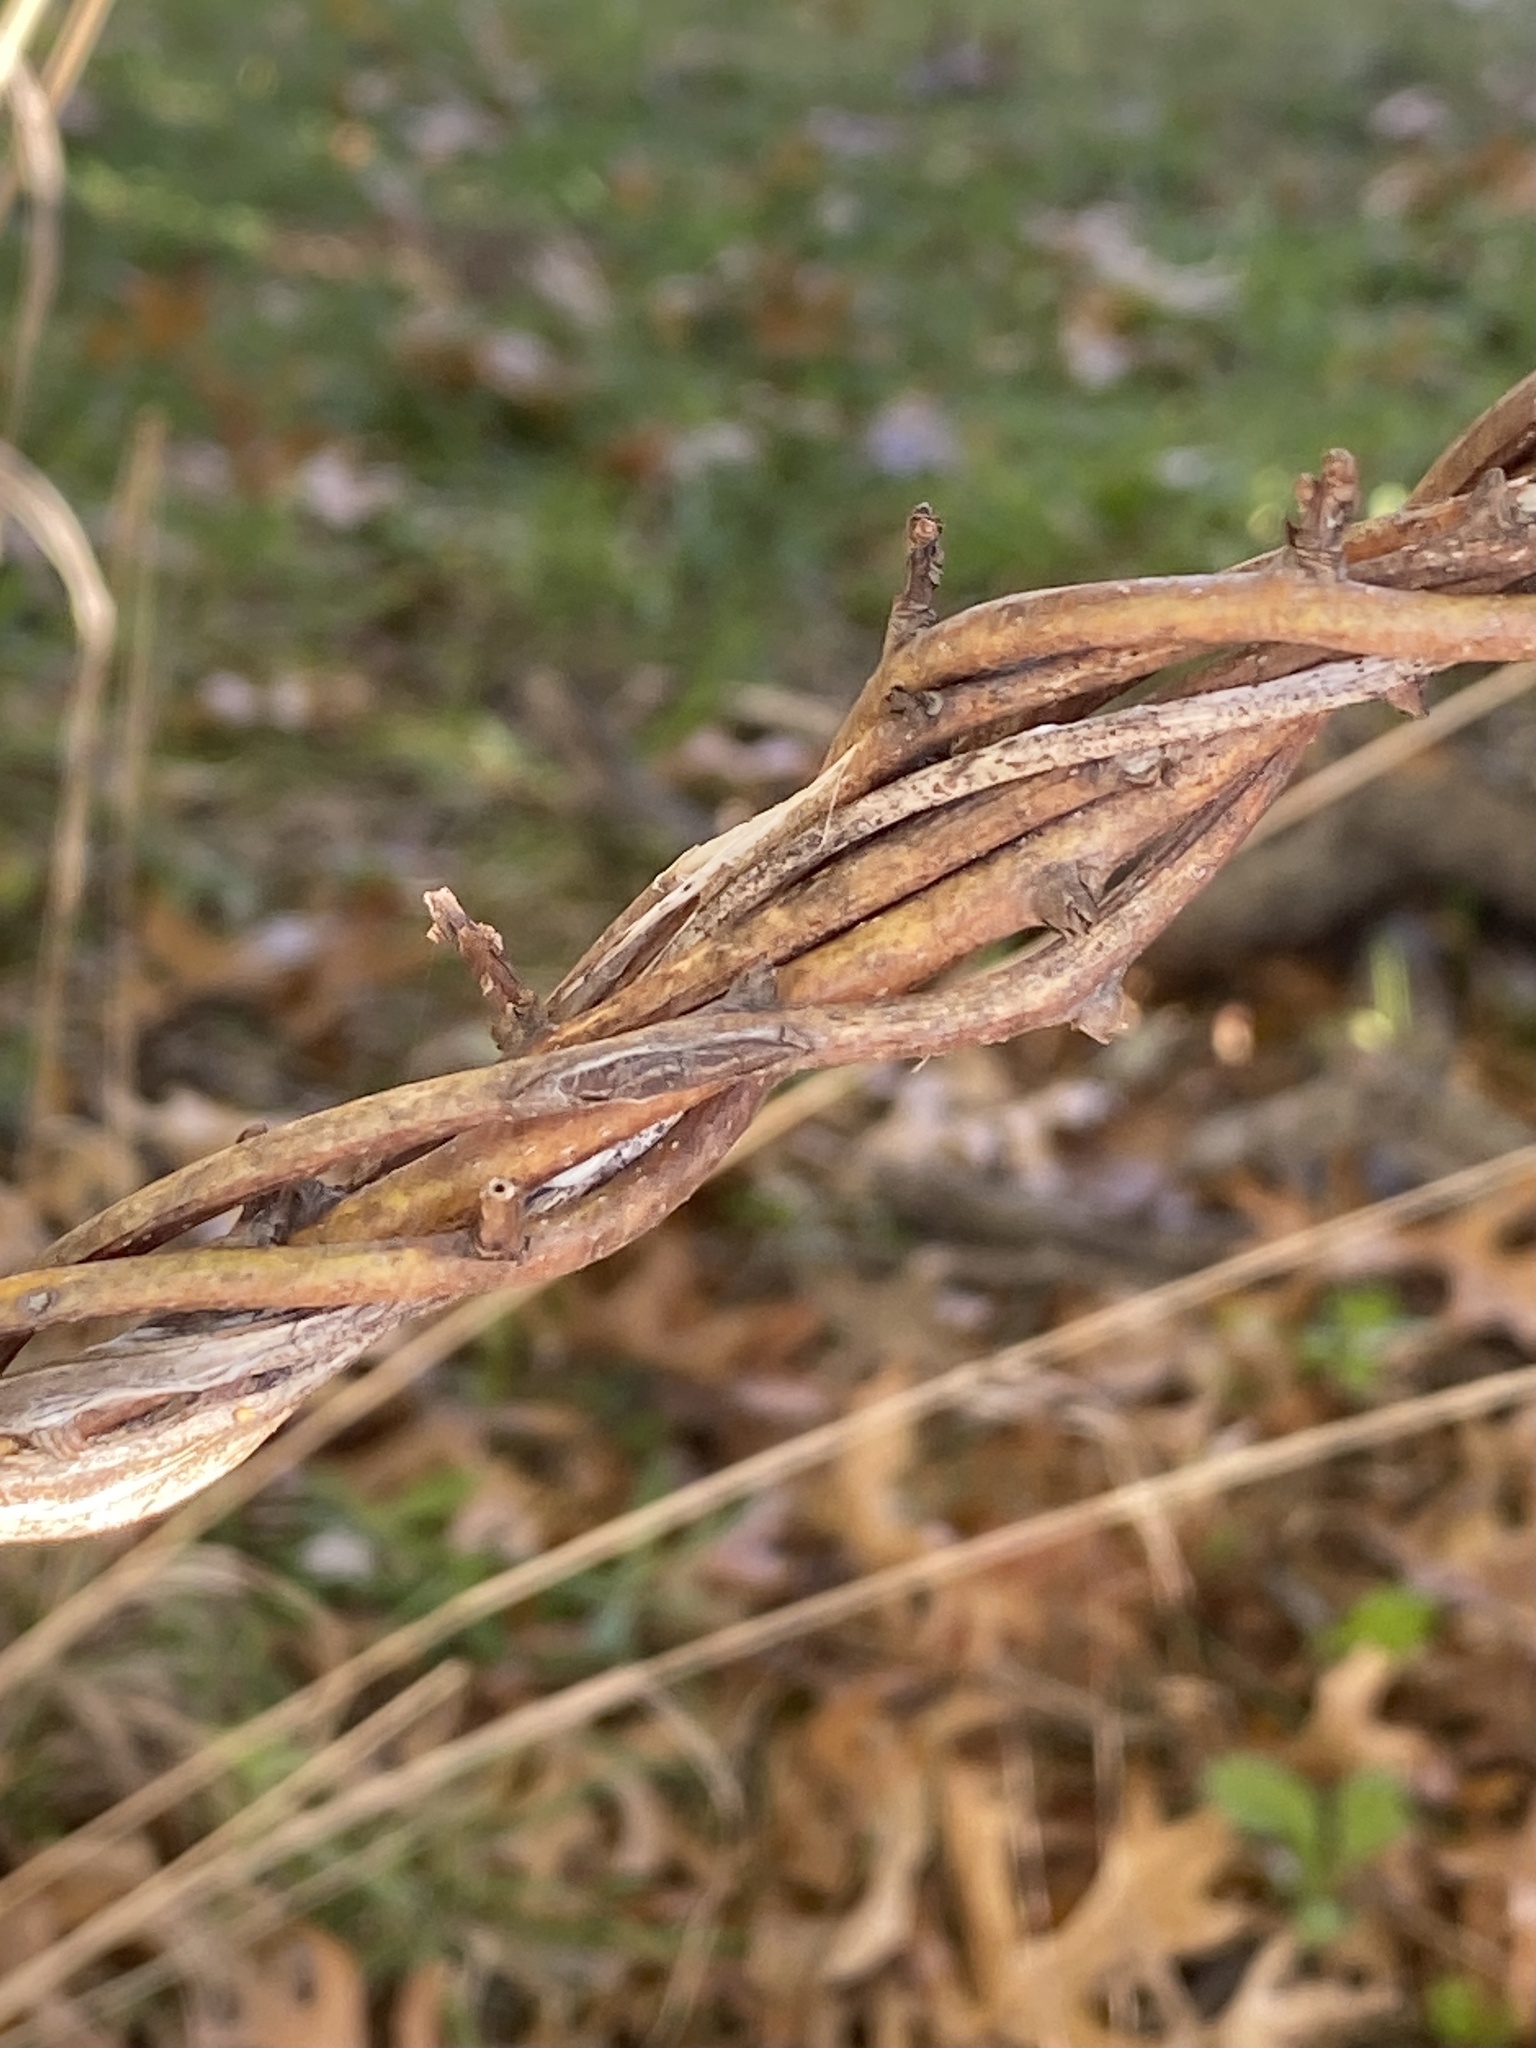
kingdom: Plantae
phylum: Tracheophyta
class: Magnoliopsida
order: Celastrales
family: Celastraceae
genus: Celastrus
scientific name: Celastrus orbiculatus
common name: Oriental bittersweet
